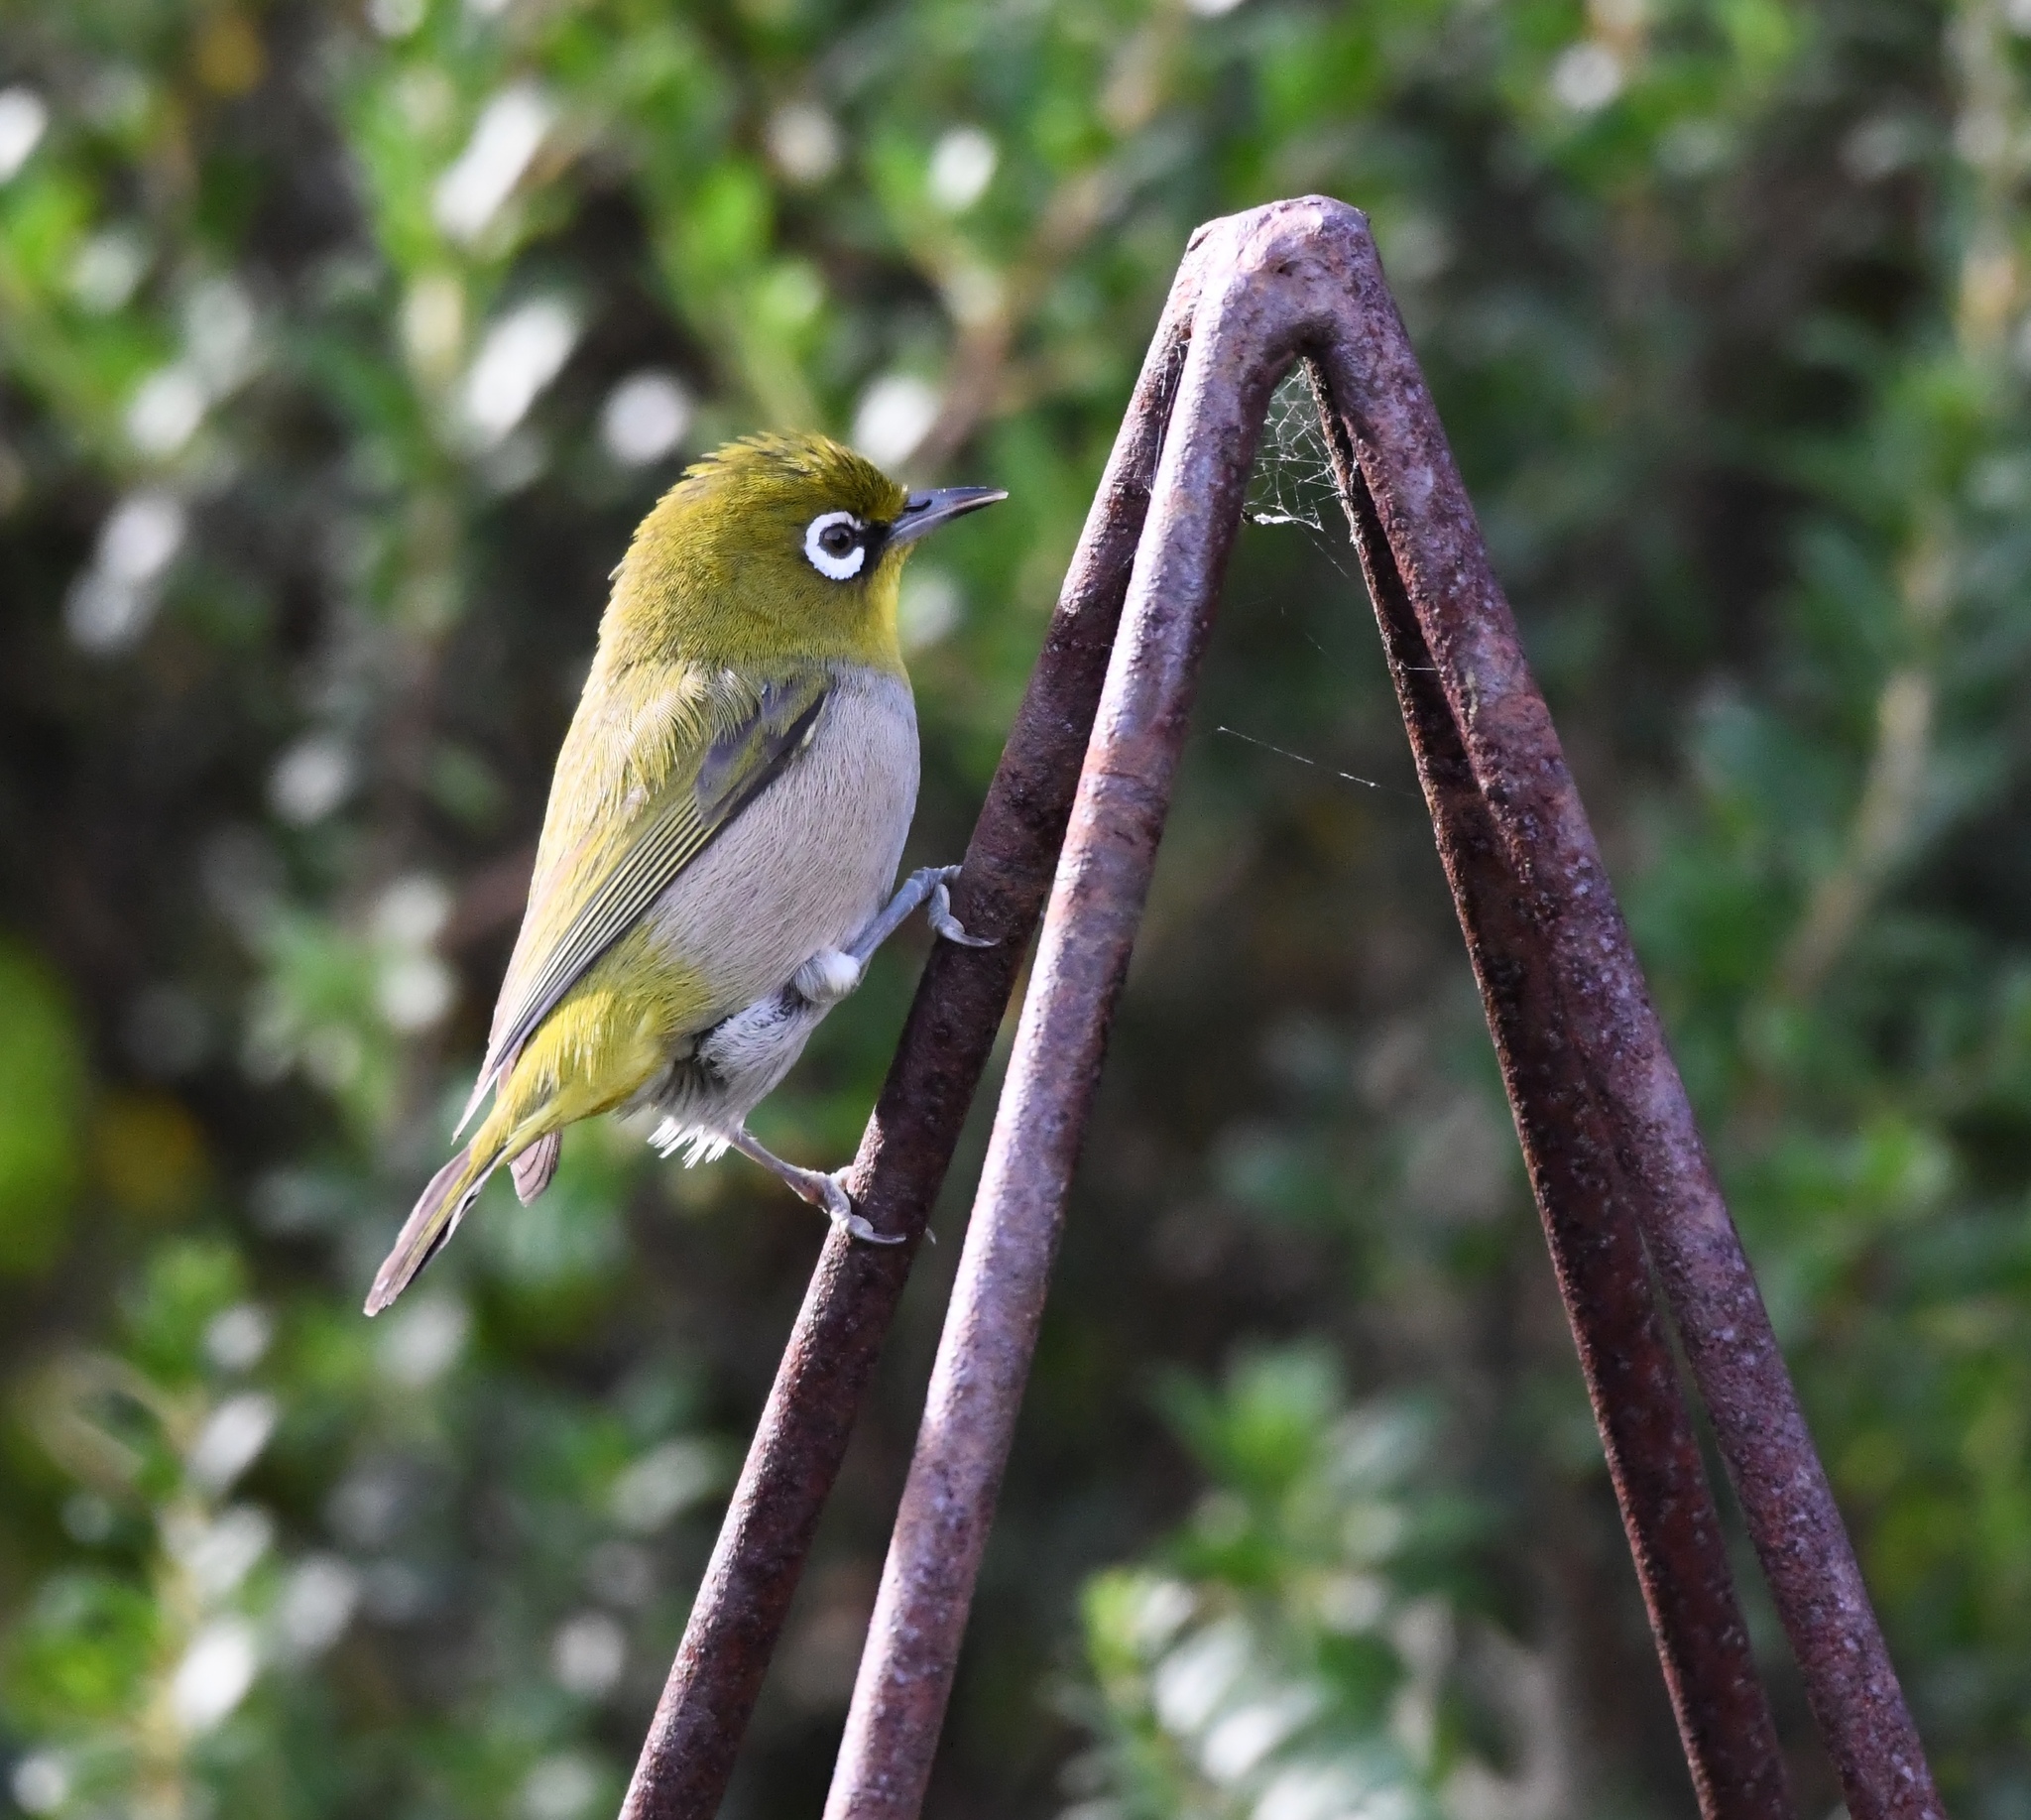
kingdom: Animalia
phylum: Chordata
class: Aves
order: Passeriformes
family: Zosteropidae
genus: Zosterops
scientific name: Zosterops virens
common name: Cape white-eye
